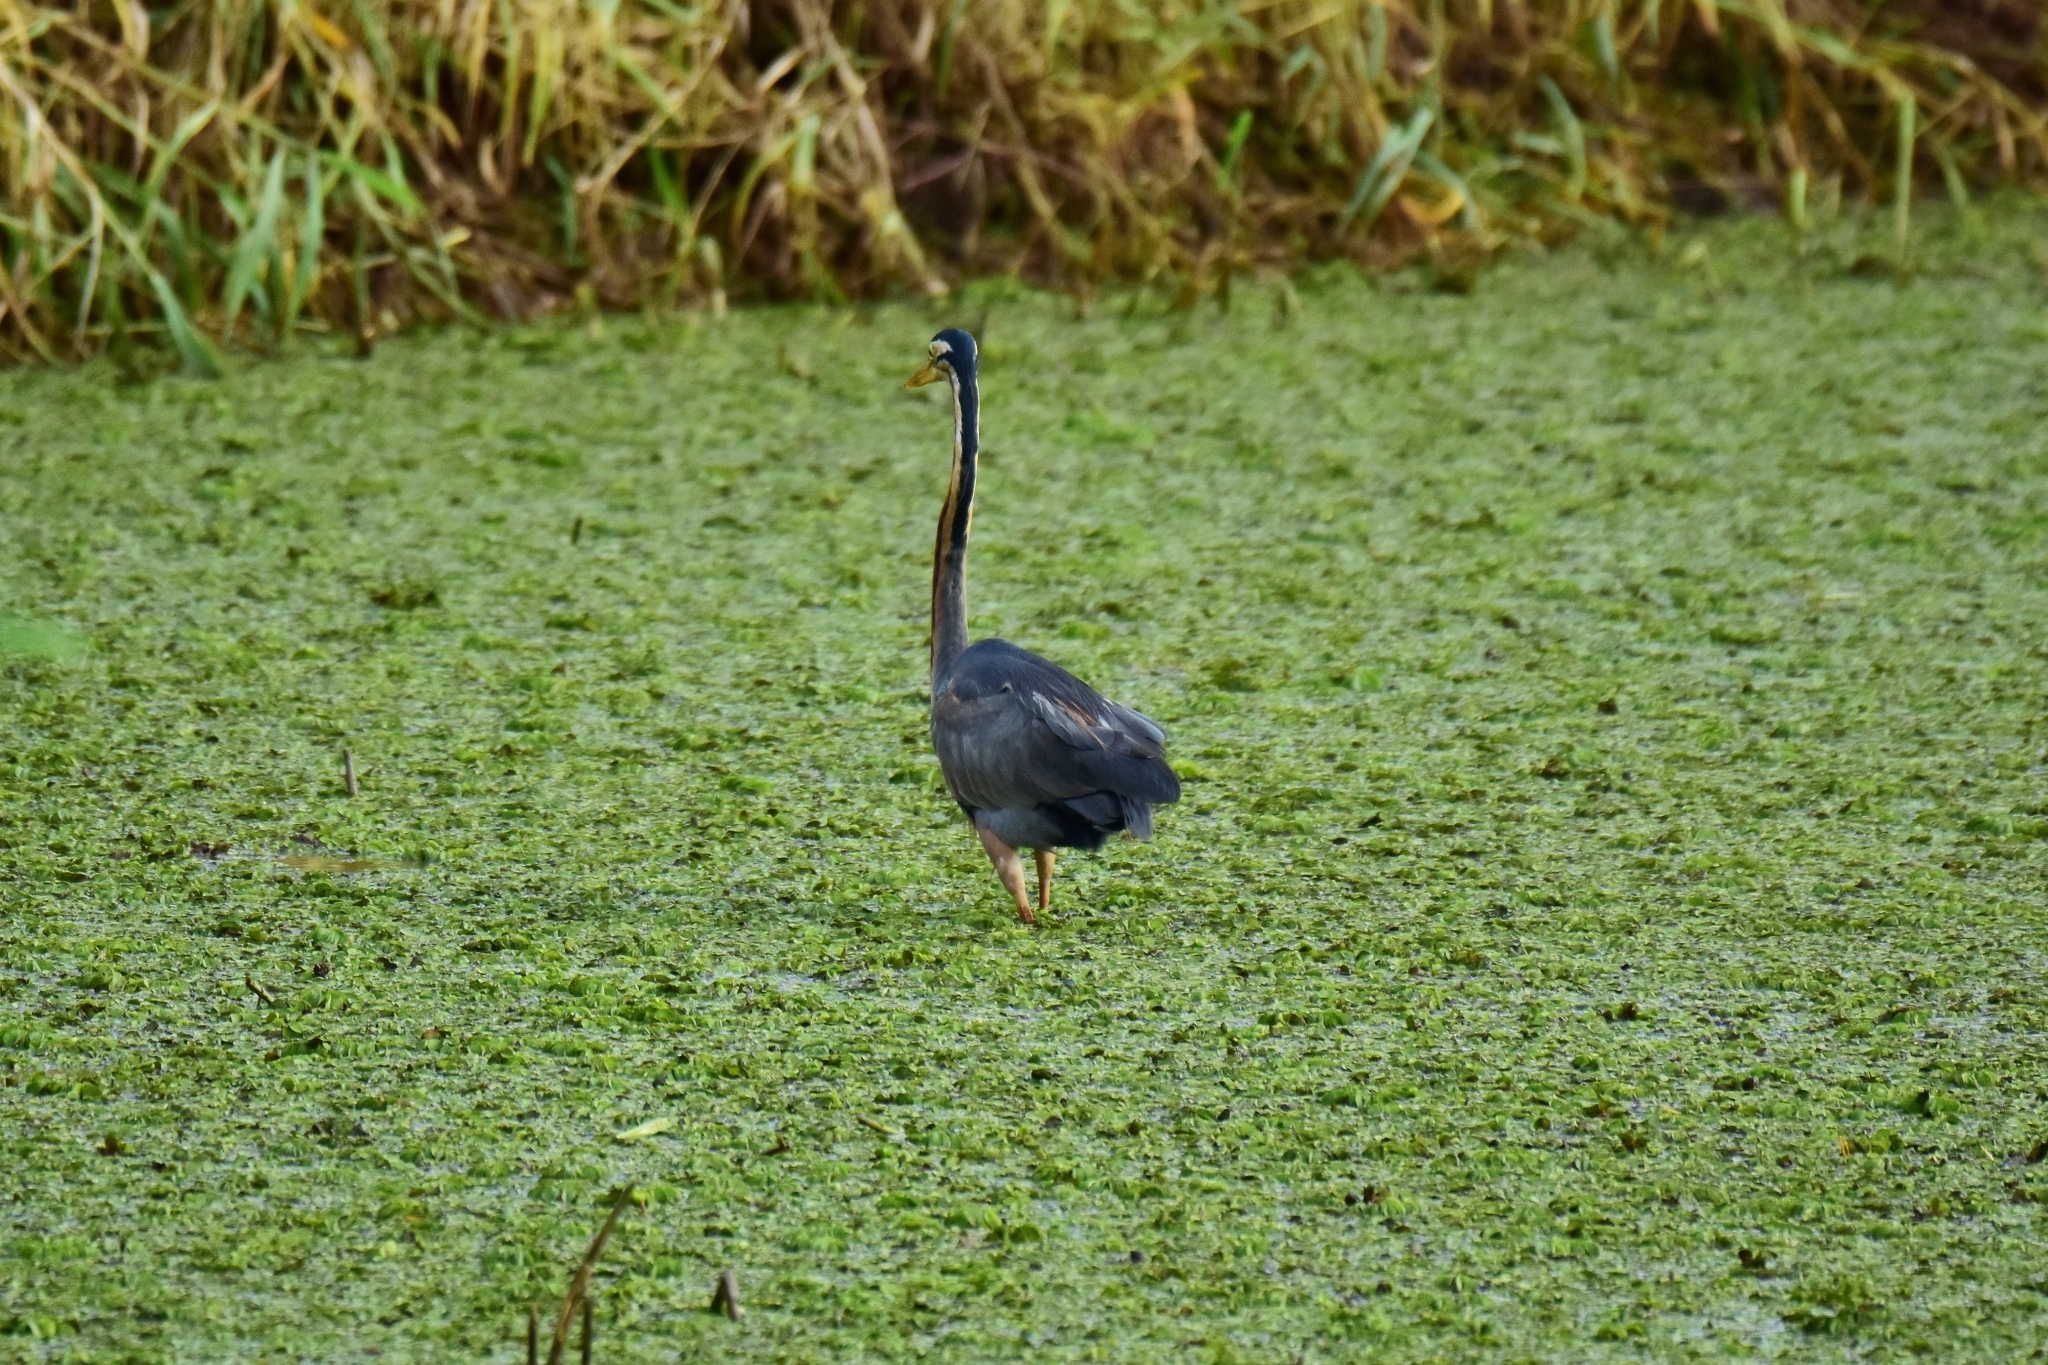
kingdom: Animalia
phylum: Chordata
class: Aves
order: Pelecaniformes
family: Ardeidae
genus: Ardea
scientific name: Ardea purpurea
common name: Purple heron
